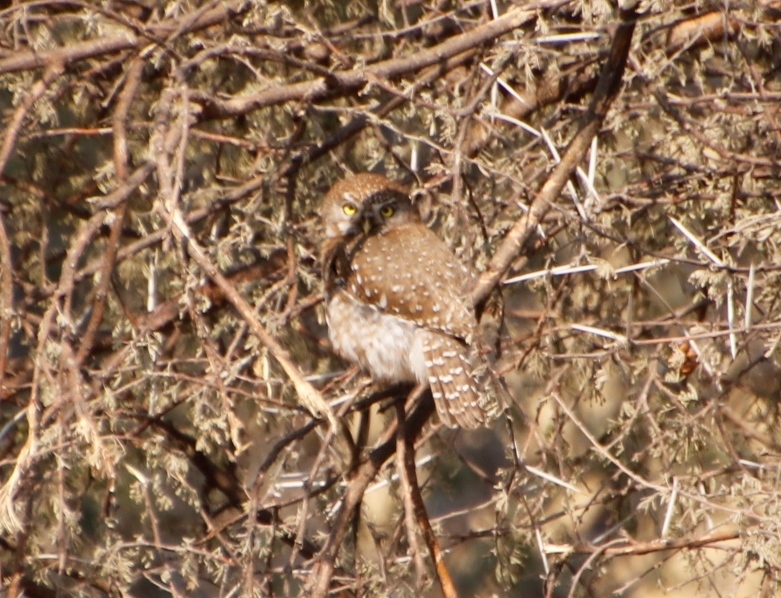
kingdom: Animalia
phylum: Chordata
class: Aves
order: Strigiformes
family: Strigidae
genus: Glaucidium
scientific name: Glaucidium perlatum
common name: Pearl-spotted owlet
